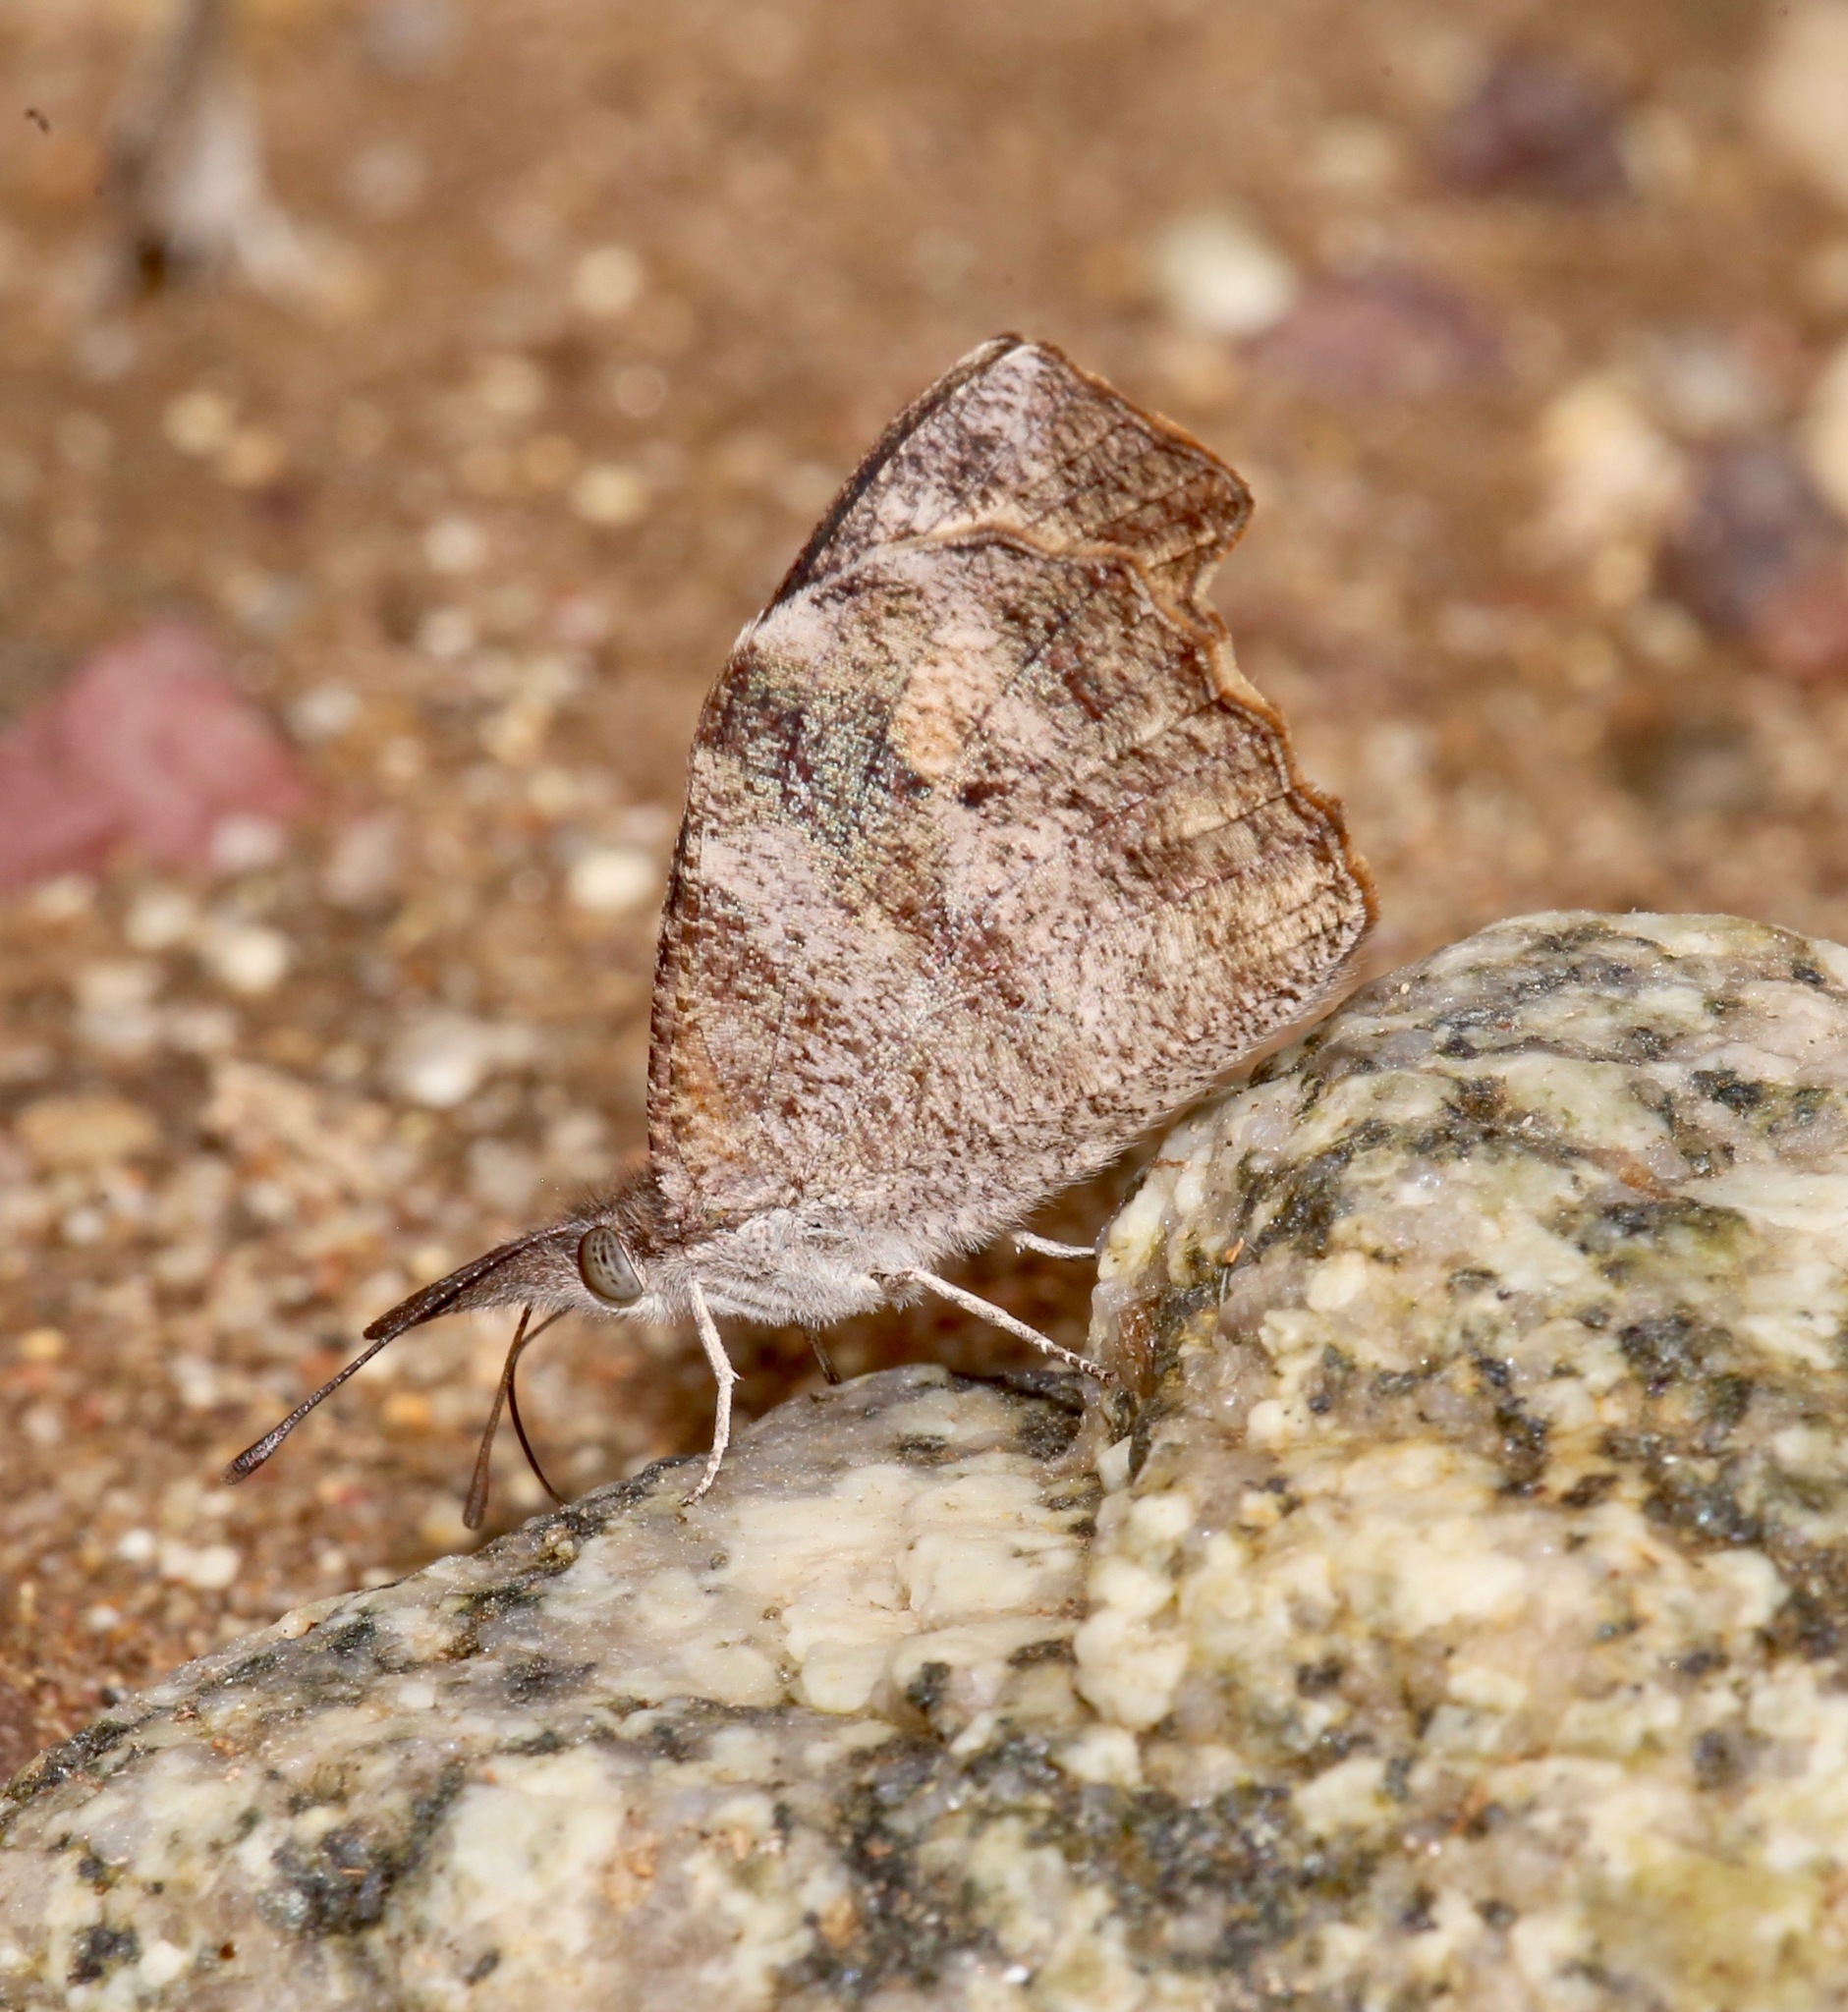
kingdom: Animalia
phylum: Arthropoda
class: Insecta
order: Lepidoptera
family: Nymphalidae
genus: Libytheana
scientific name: Libytheana carinenta
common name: American snout
